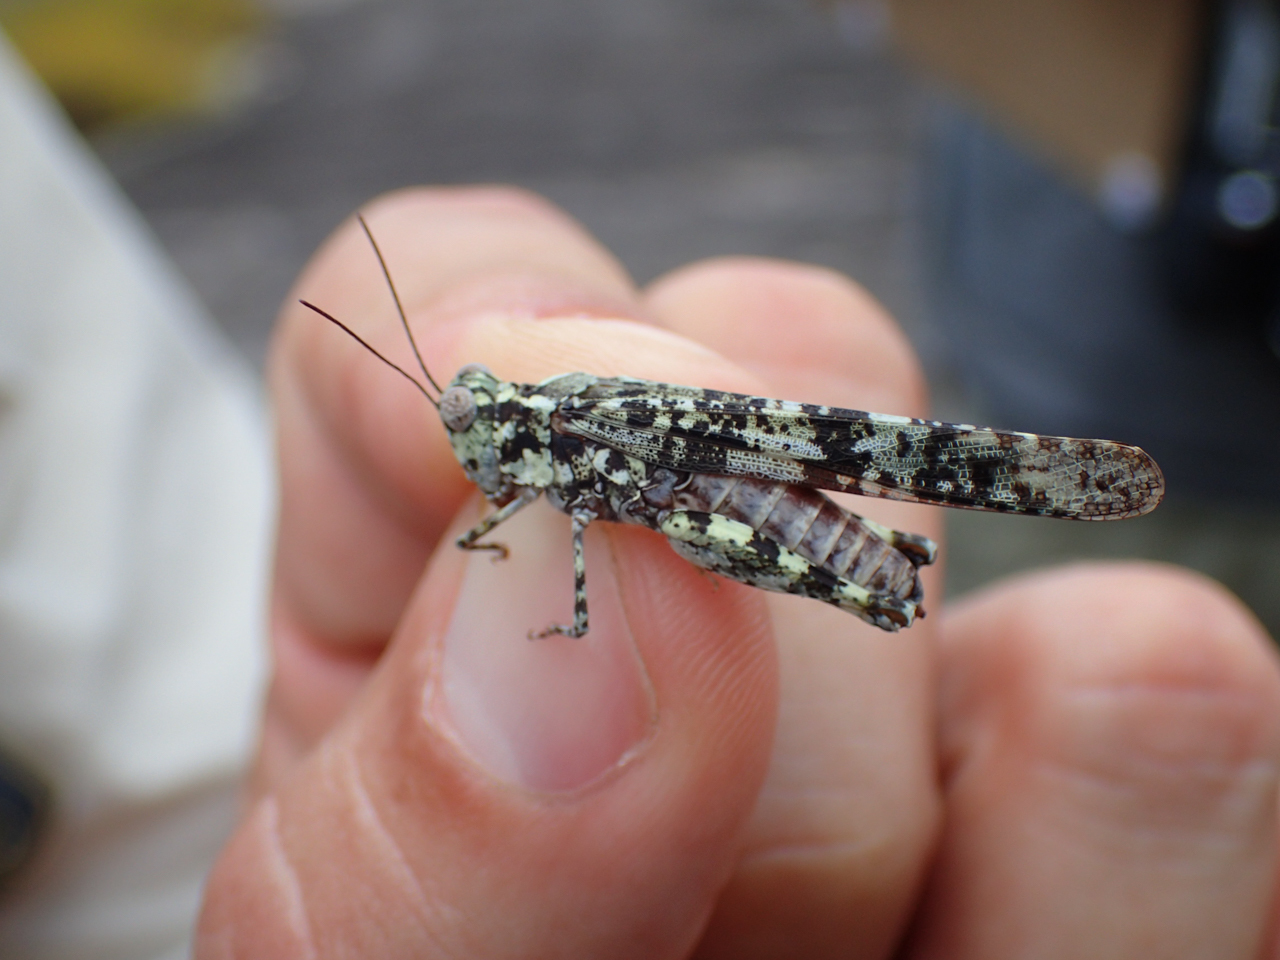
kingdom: Animalia
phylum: Arthropoda
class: Insecta
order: Orthoptera
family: Acrididae
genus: Trimerotropis
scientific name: Trimerotropis saxatilis
